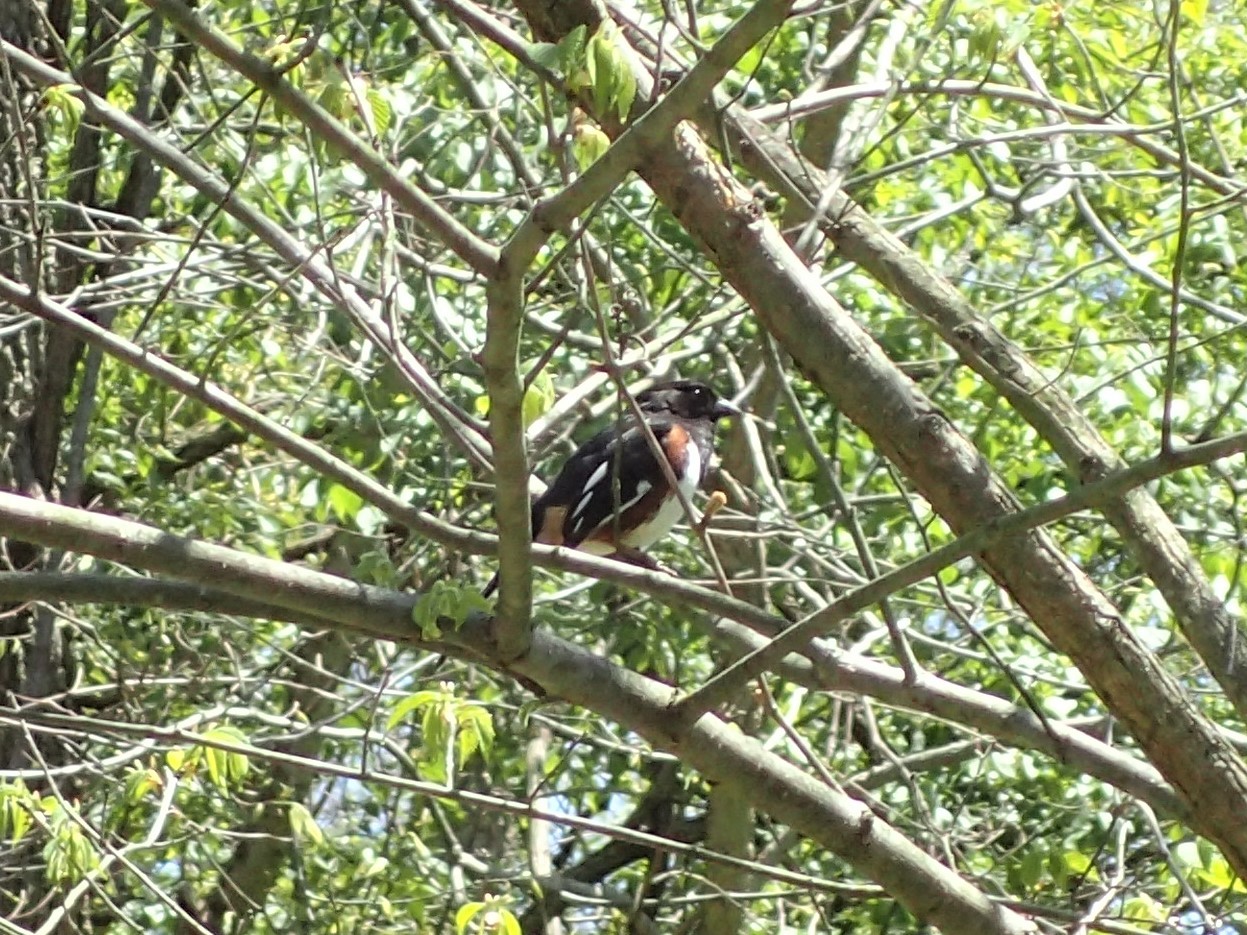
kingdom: Animalia
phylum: Chordata
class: Aves
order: Passeriformes
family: Passerellidae
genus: Pipilo
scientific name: Pipilo erythrophthalmus
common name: Eastern towhee
